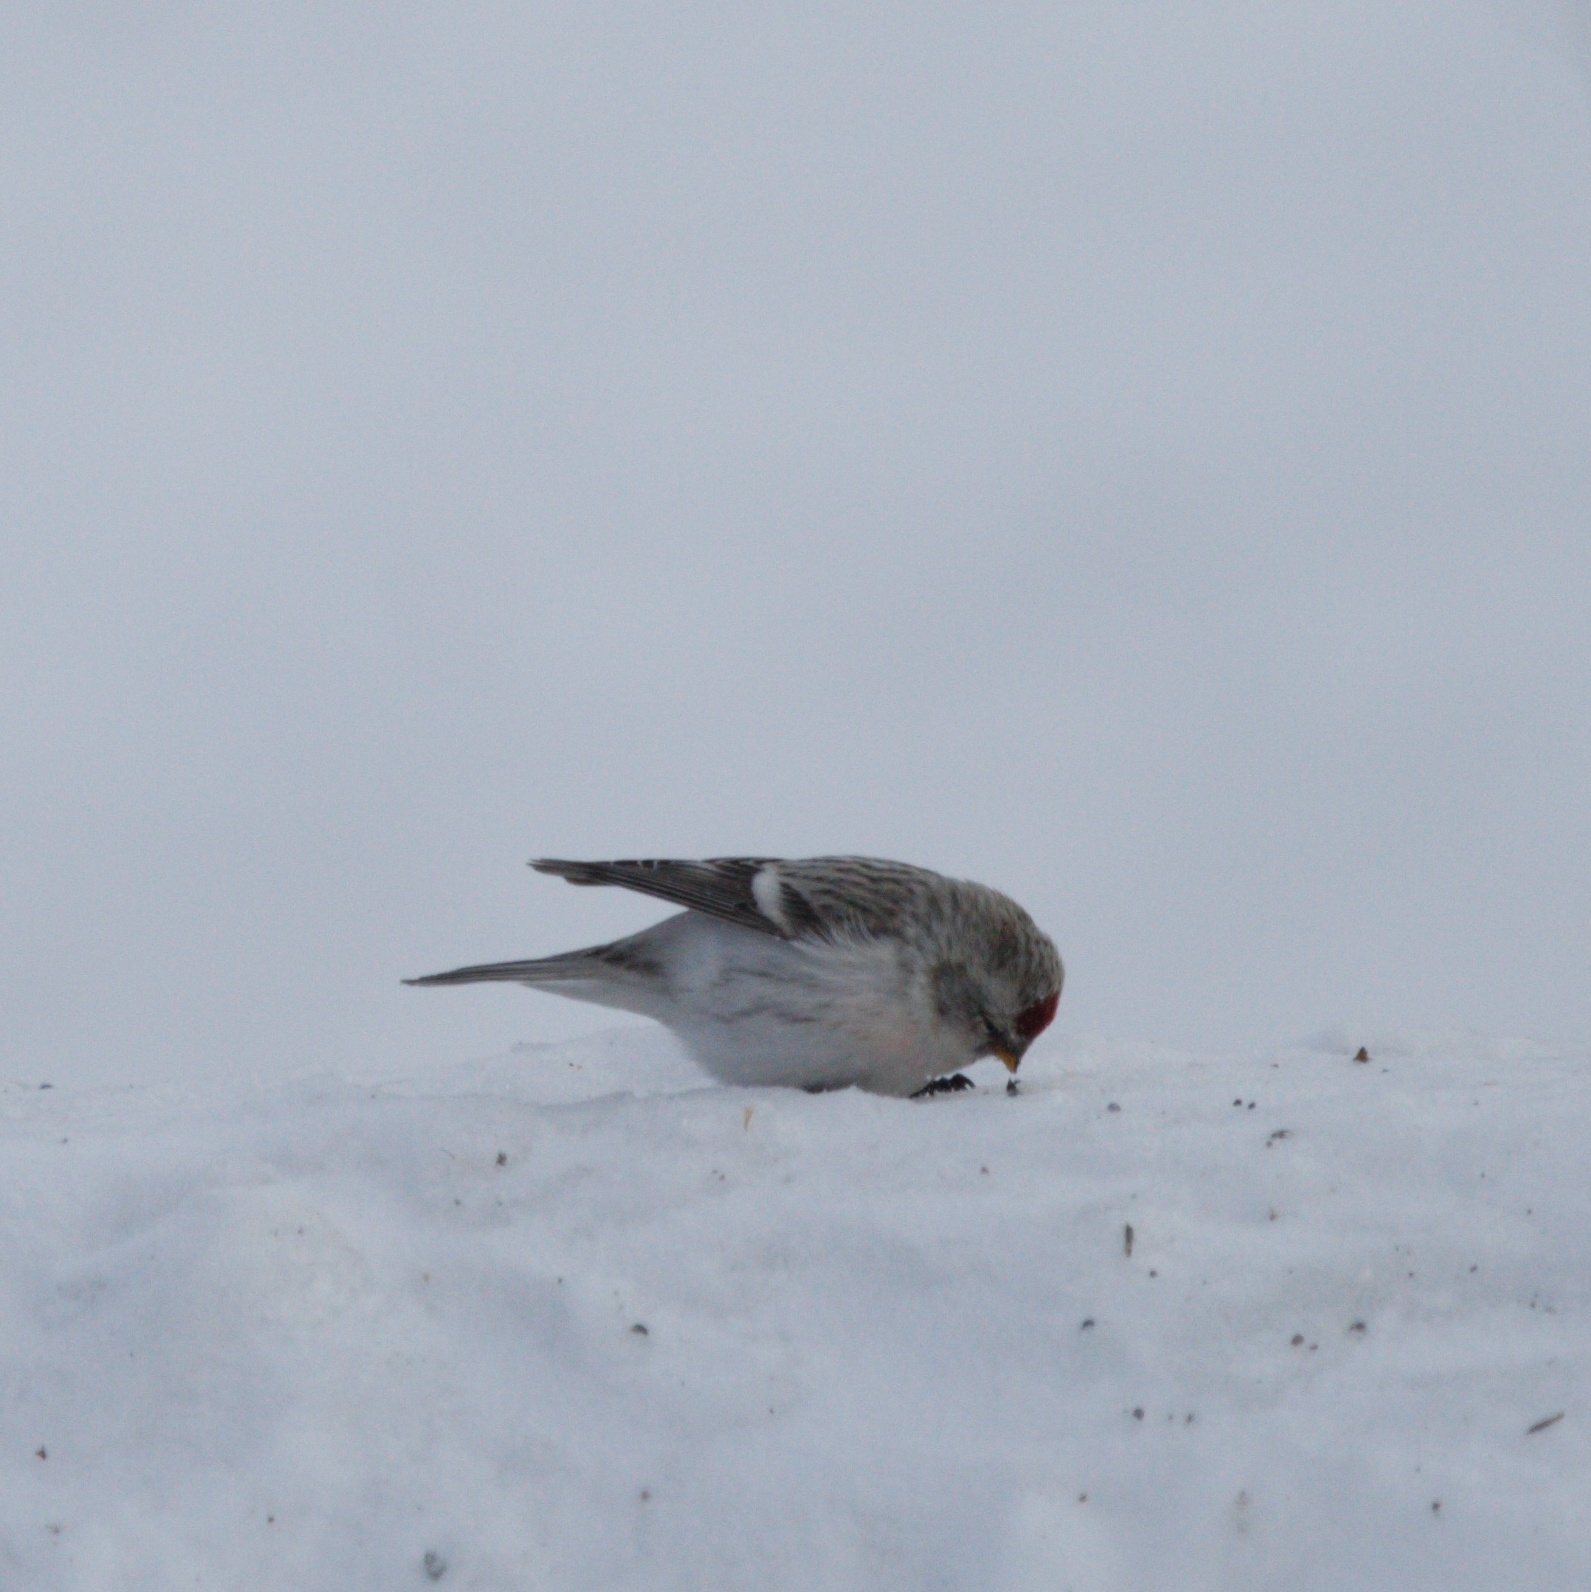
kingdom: Animalia
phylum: Chordata
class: Aves
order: Passeriformes
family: Fringillidae
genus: Acanthis
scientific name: Acanthis hornemanni
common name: Arctic redpoll
